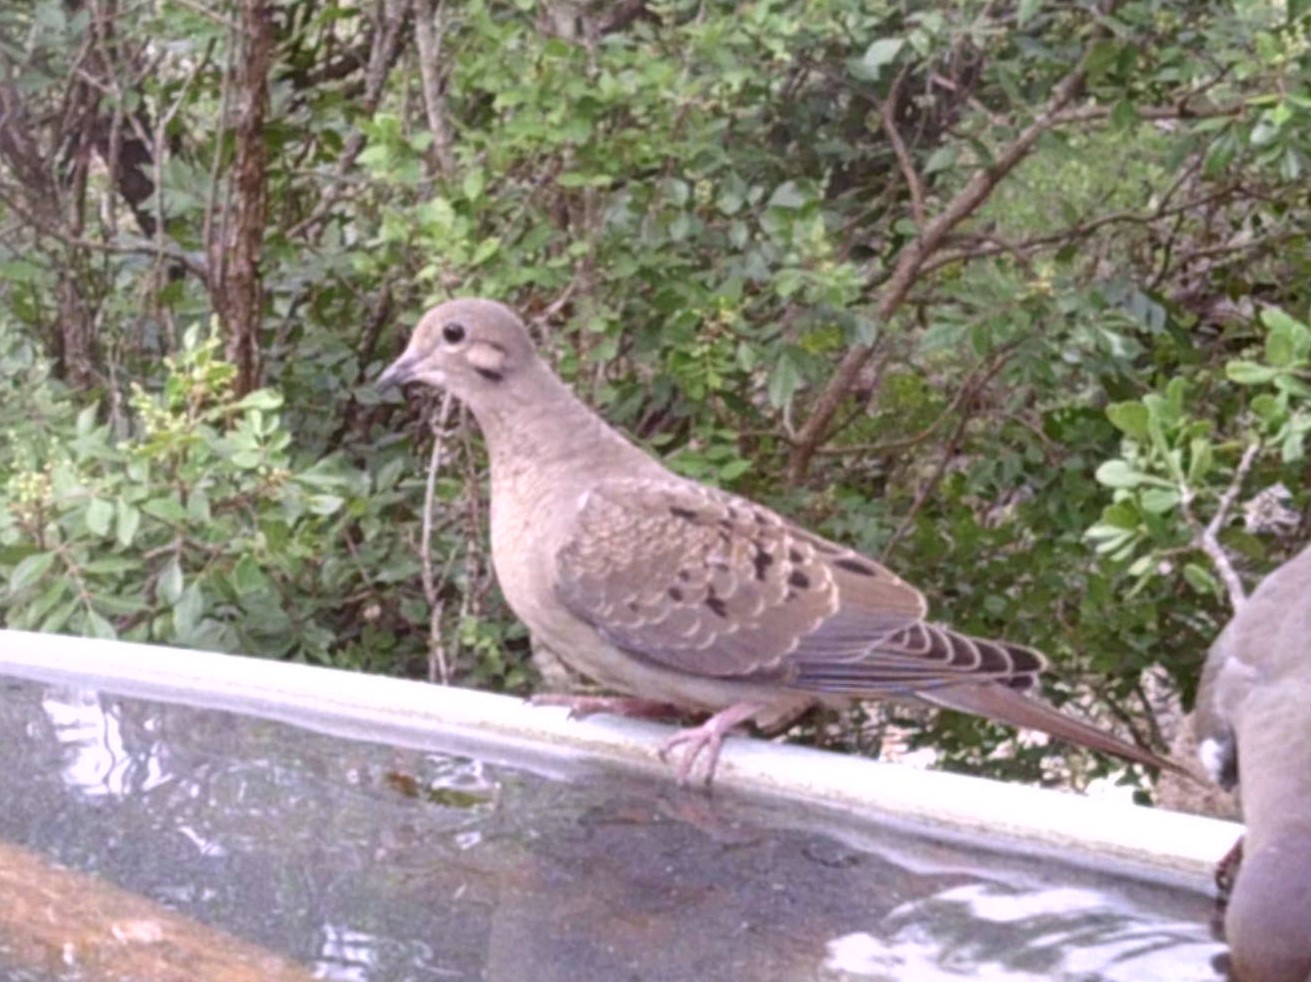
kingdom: Animalia
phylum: Chordata
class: Aves
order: Columbiformes
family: Columbidae
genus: Zenaida
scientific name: Zenaida macroura
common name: Mourning dove
